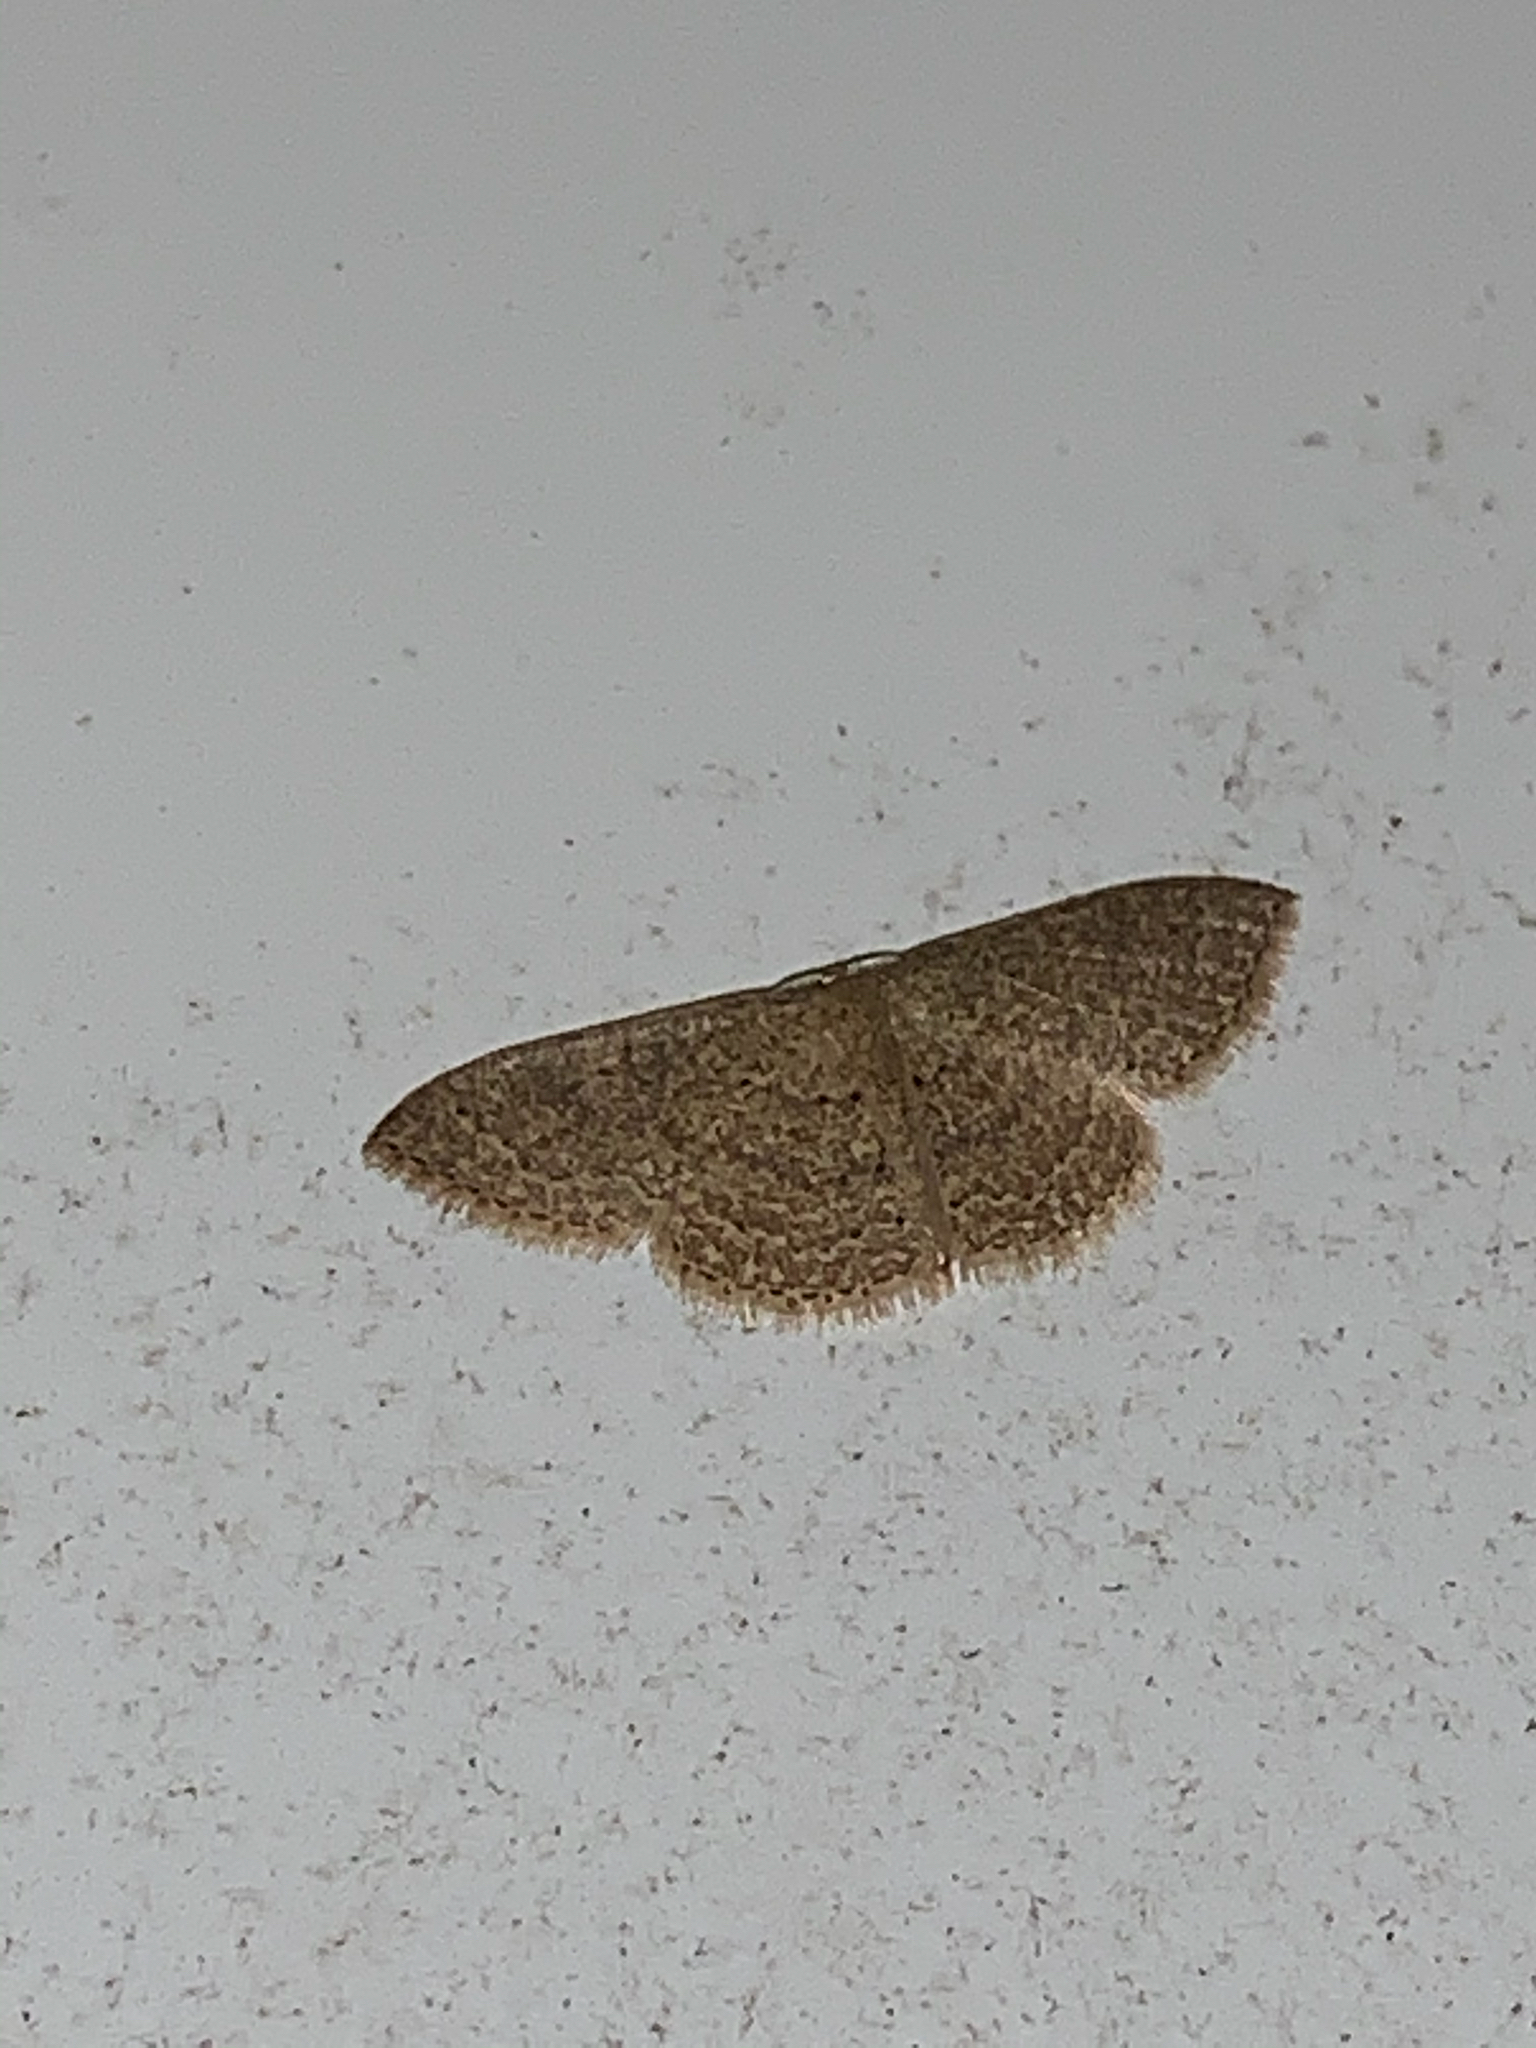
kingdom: Animalia
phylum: Arthropoda
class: Insecta
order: Lepidoptera
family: Geometridae
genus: Pleuroprucha
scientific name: Pleuroprucha insulsaria
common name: Common tan wave
